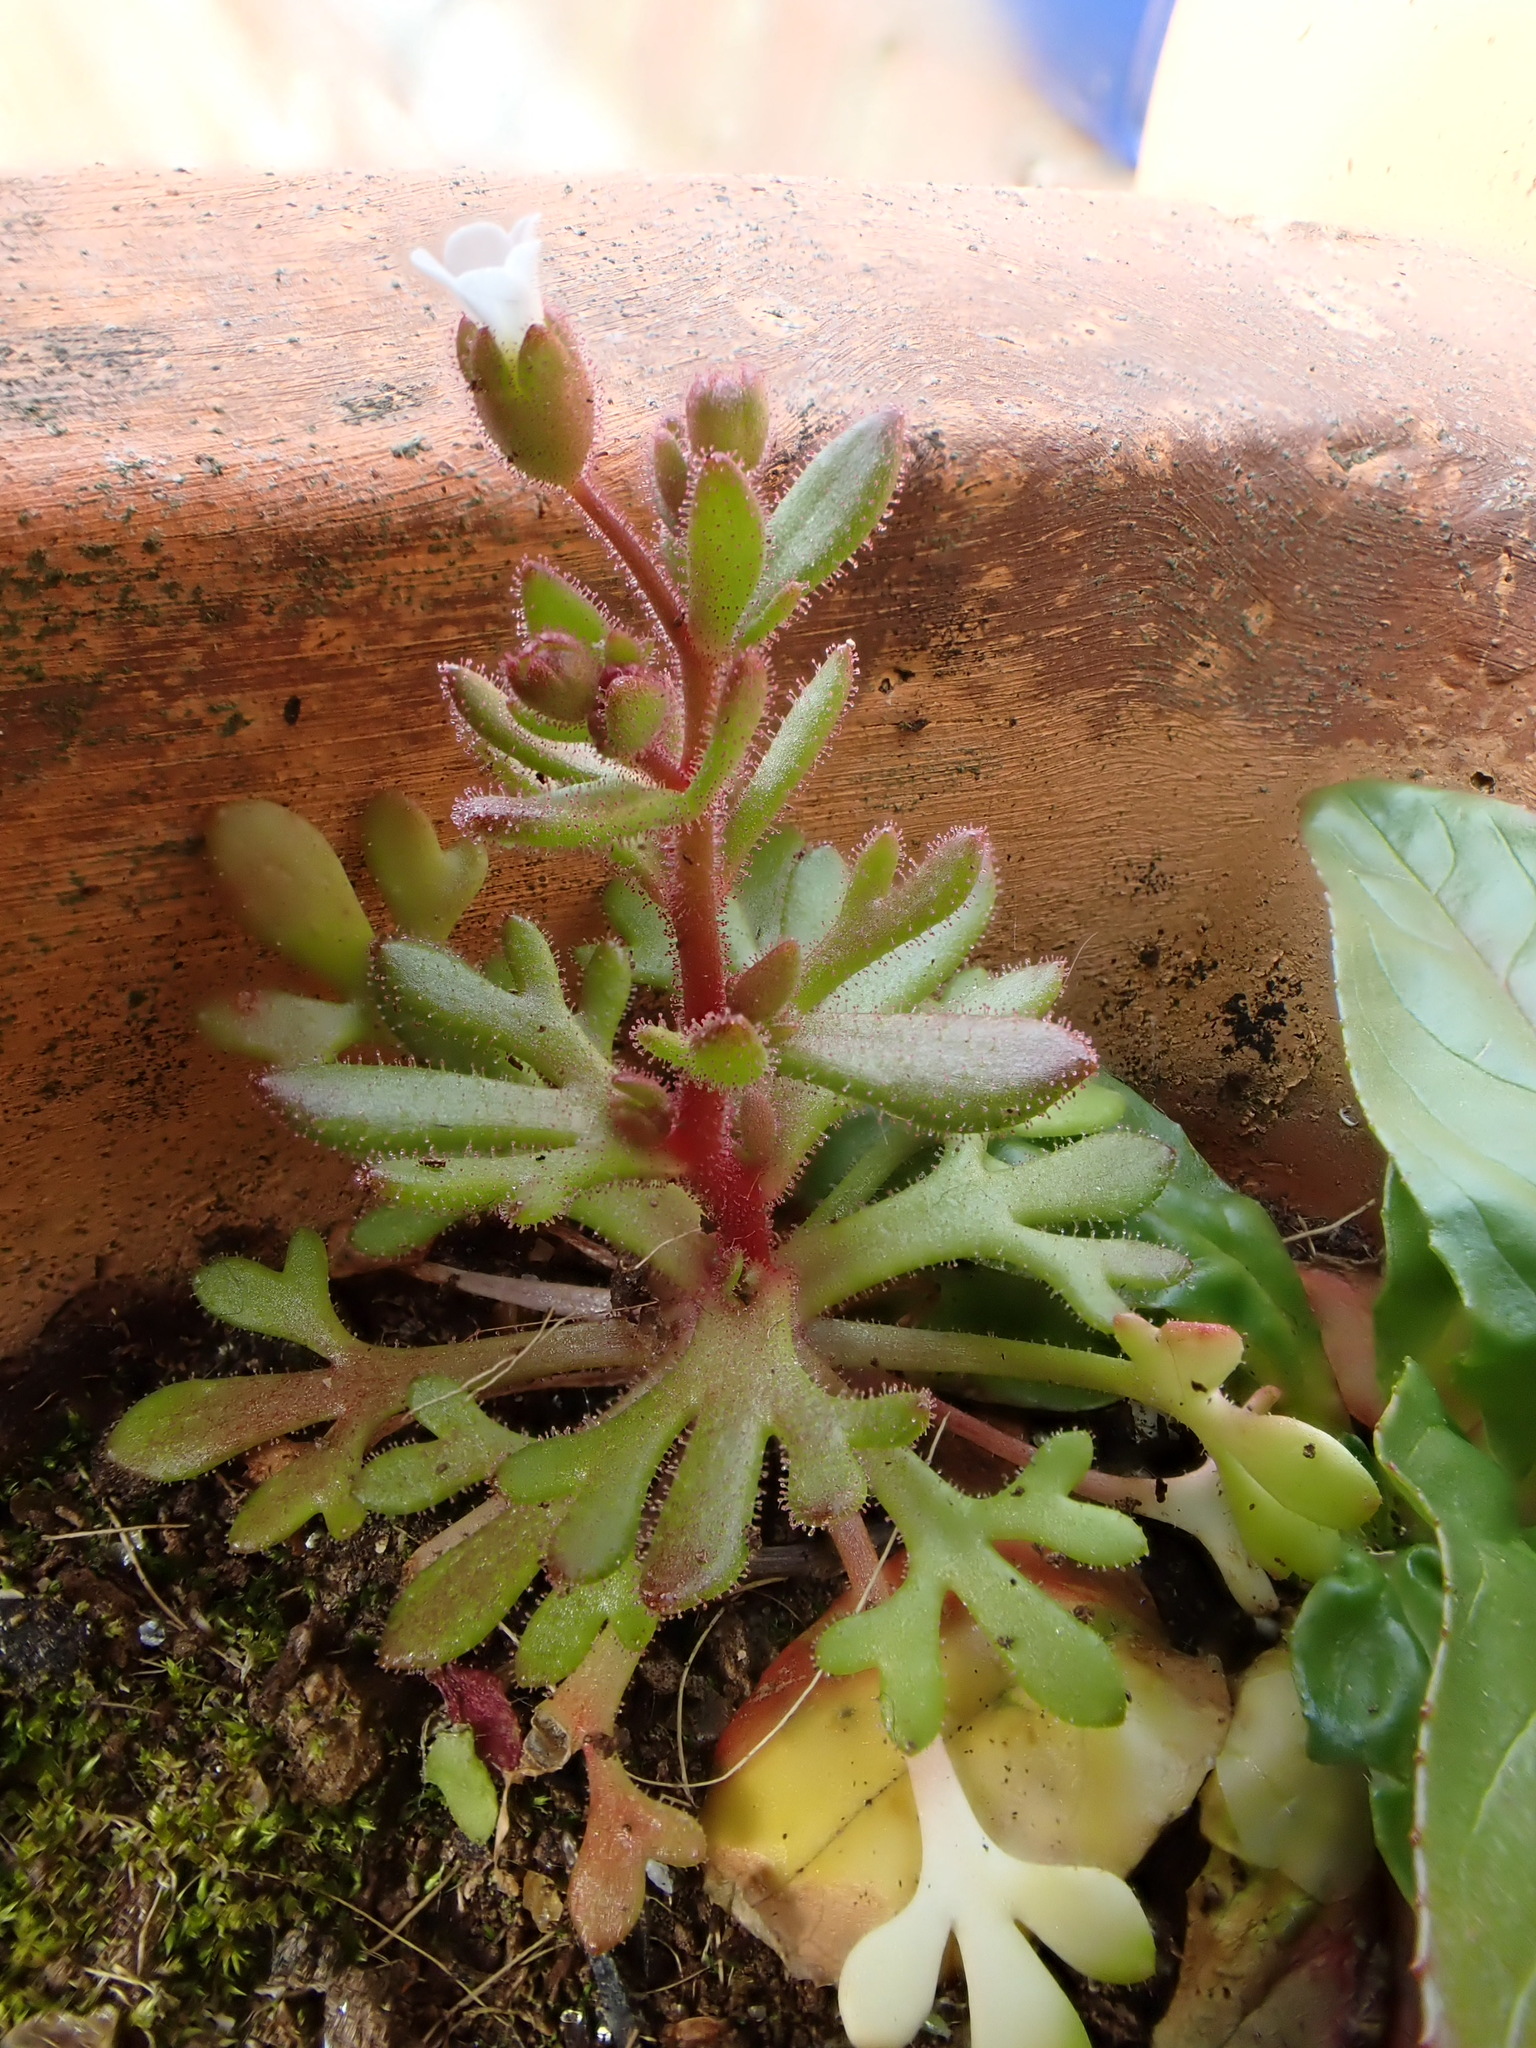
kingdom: Plantae
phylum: Tracheophyta
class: Magnoliopsida
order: Saxifragales
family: Saxifragaceae
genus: Saxifraga
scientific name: Saxifraga tridactylites
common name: Rue-leaved saxifrage
